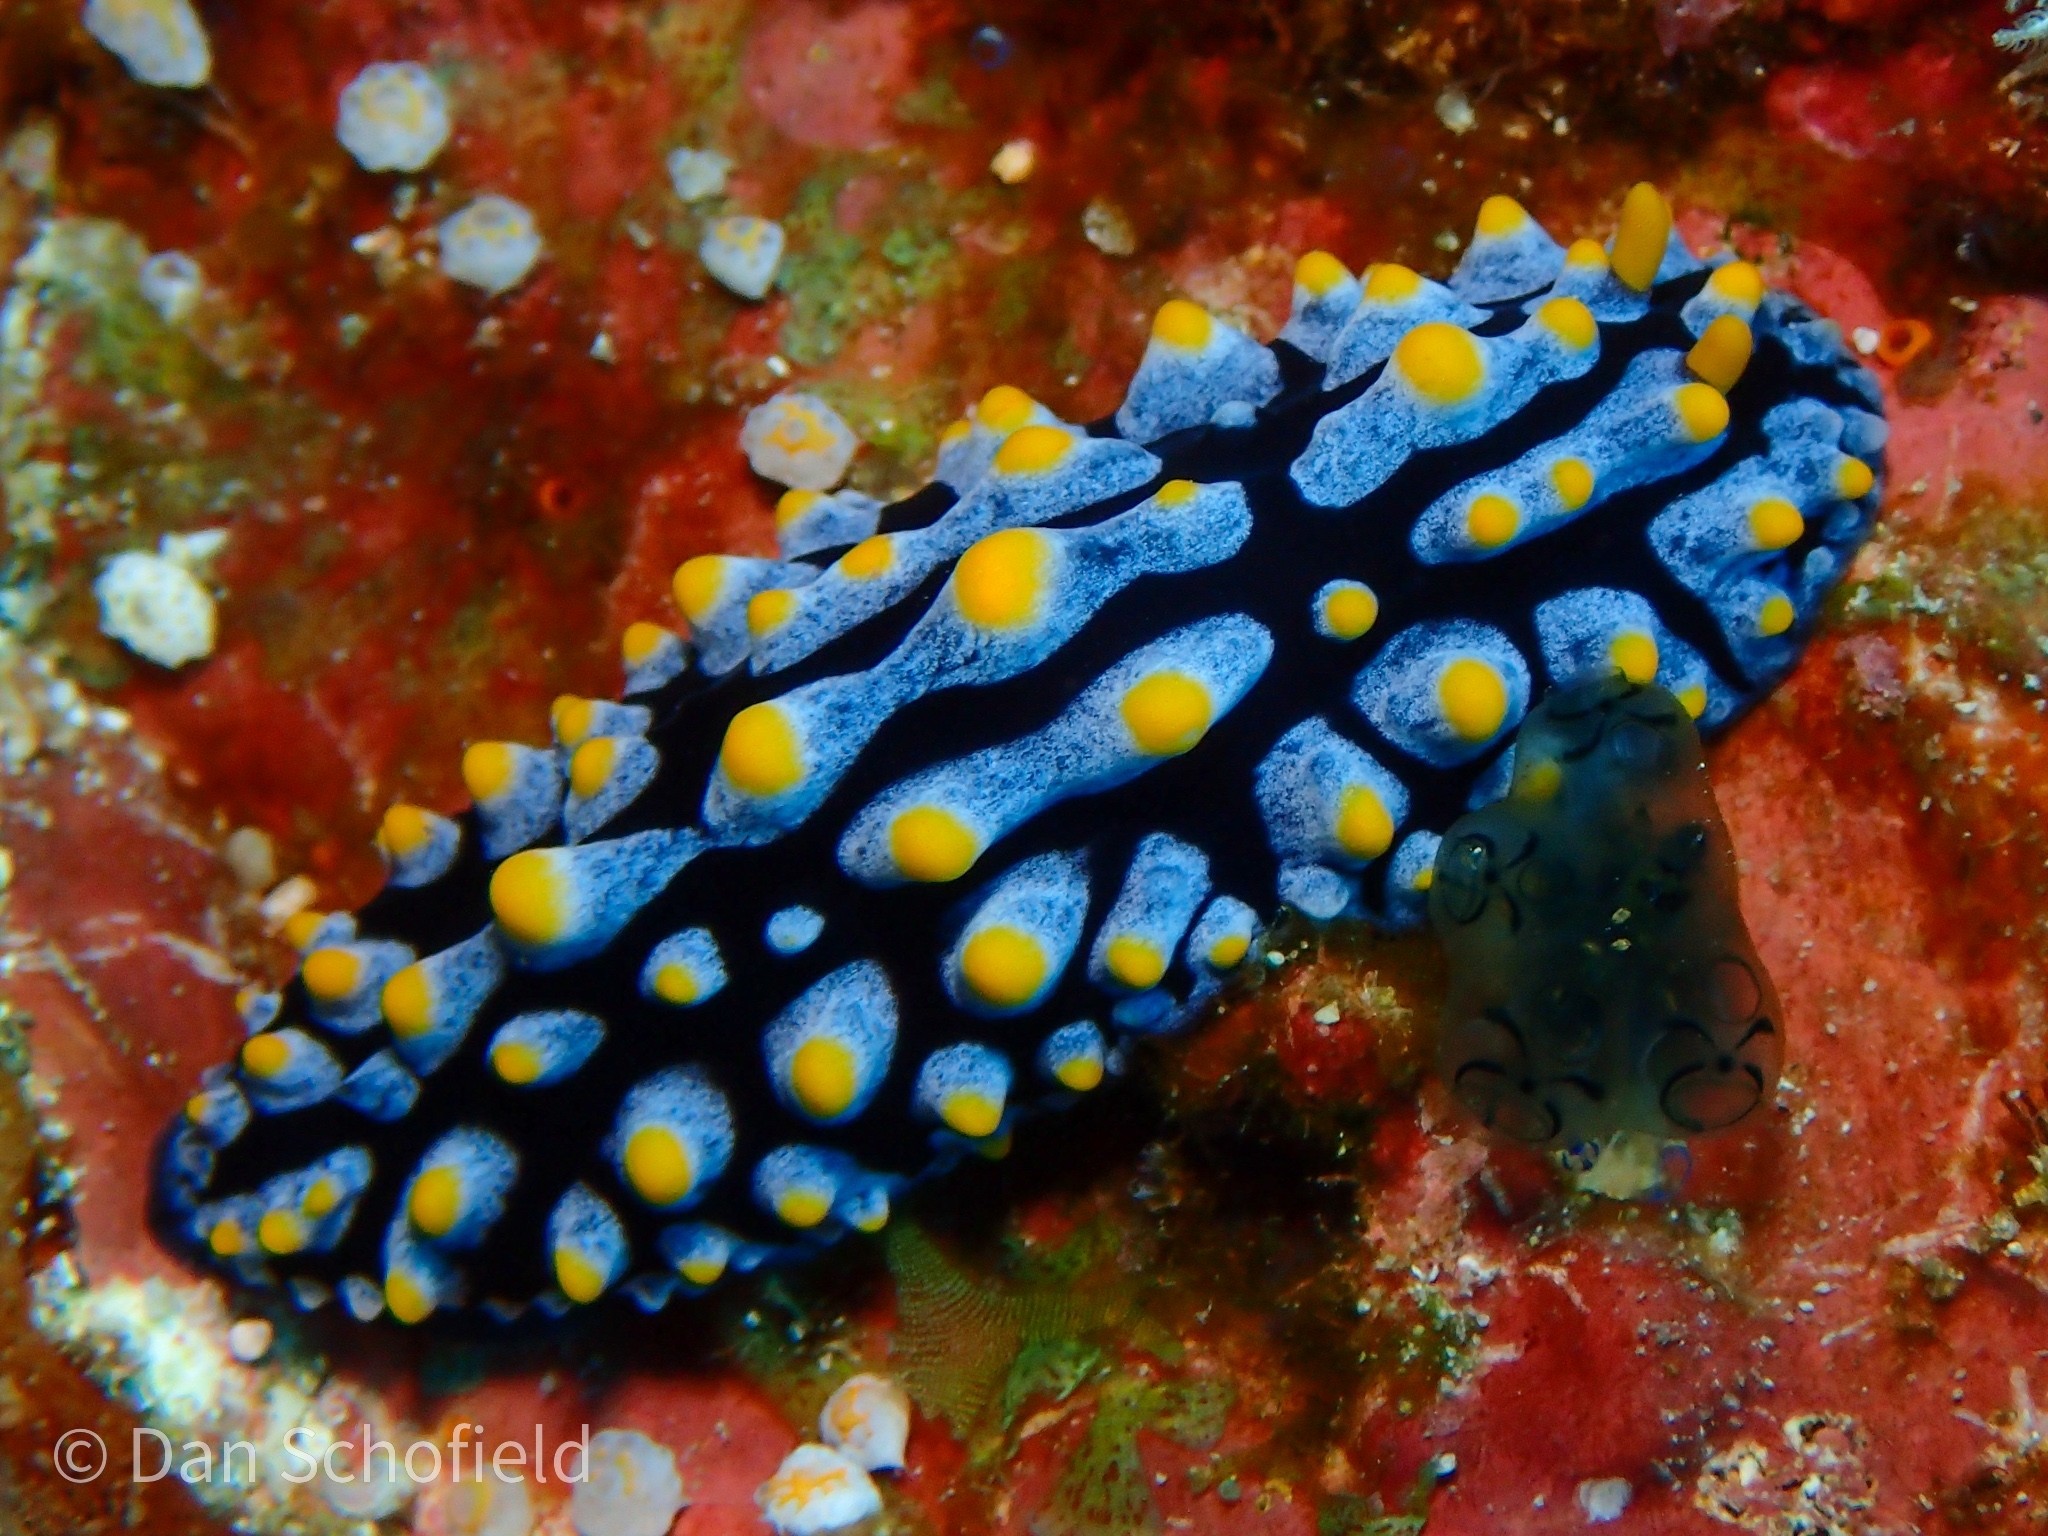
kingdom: Animalia
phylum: Mollusca
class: Gastropoda
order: Nudibranchia
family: Phyllidiidae
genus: Phyllidia
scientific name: Phyllidia varicosa
